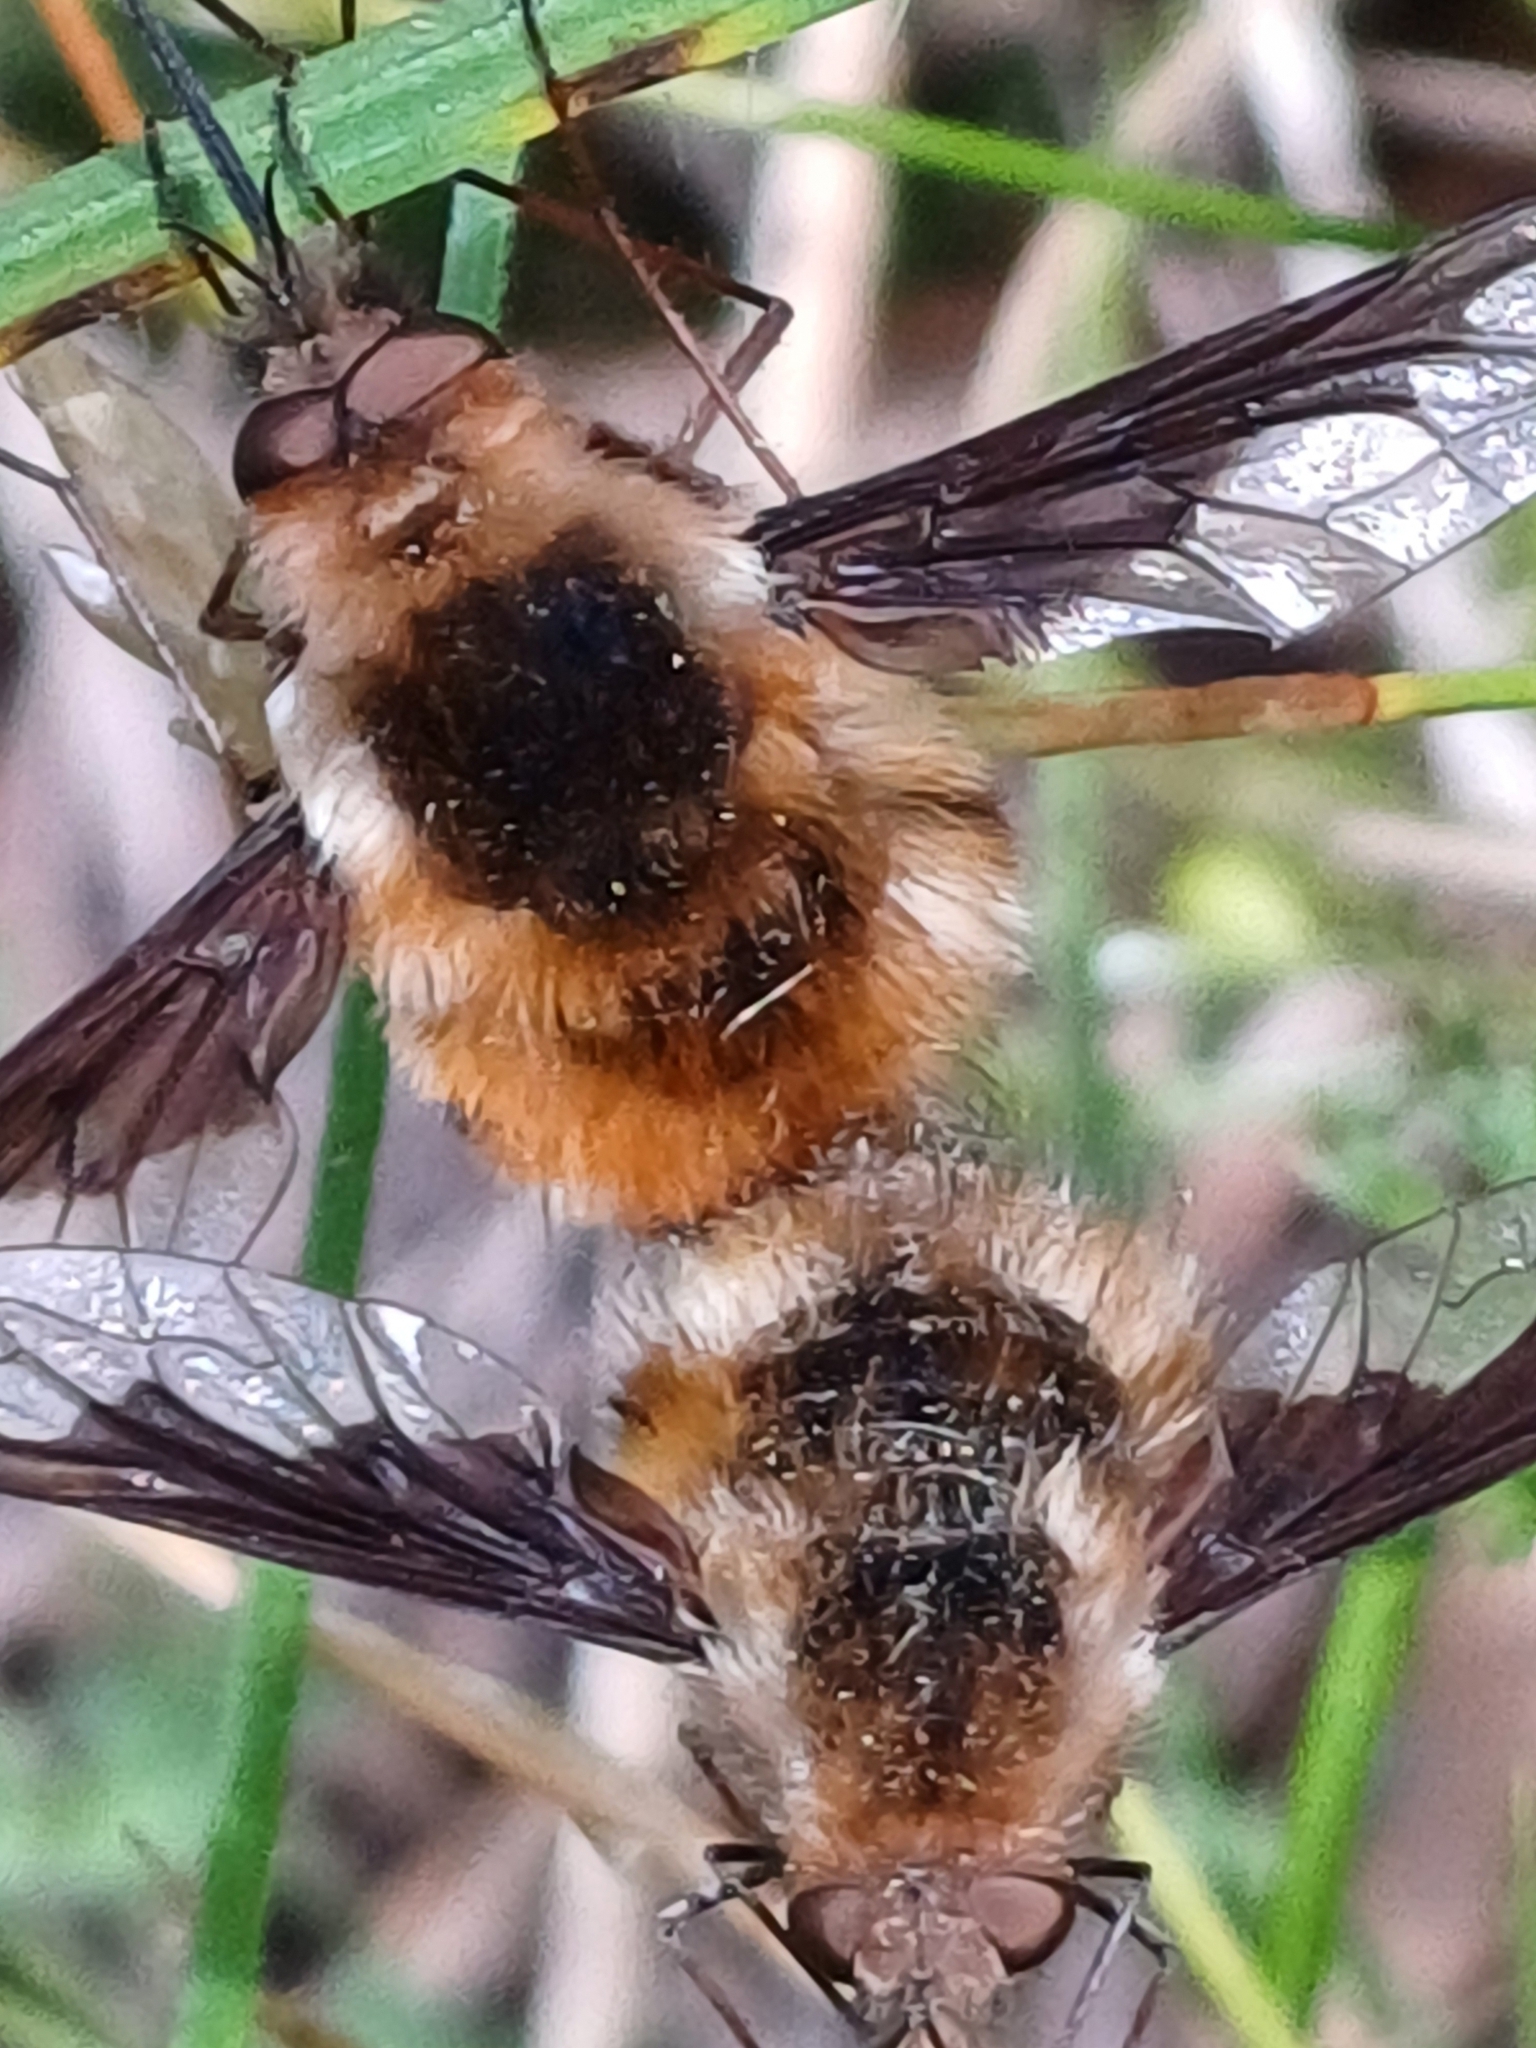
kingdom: Animalia
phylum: Arthropoda
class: Insecta
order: Diptera
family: Bombyliidae
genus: Bombylius
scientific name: Bombylius major
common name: Bee fly
